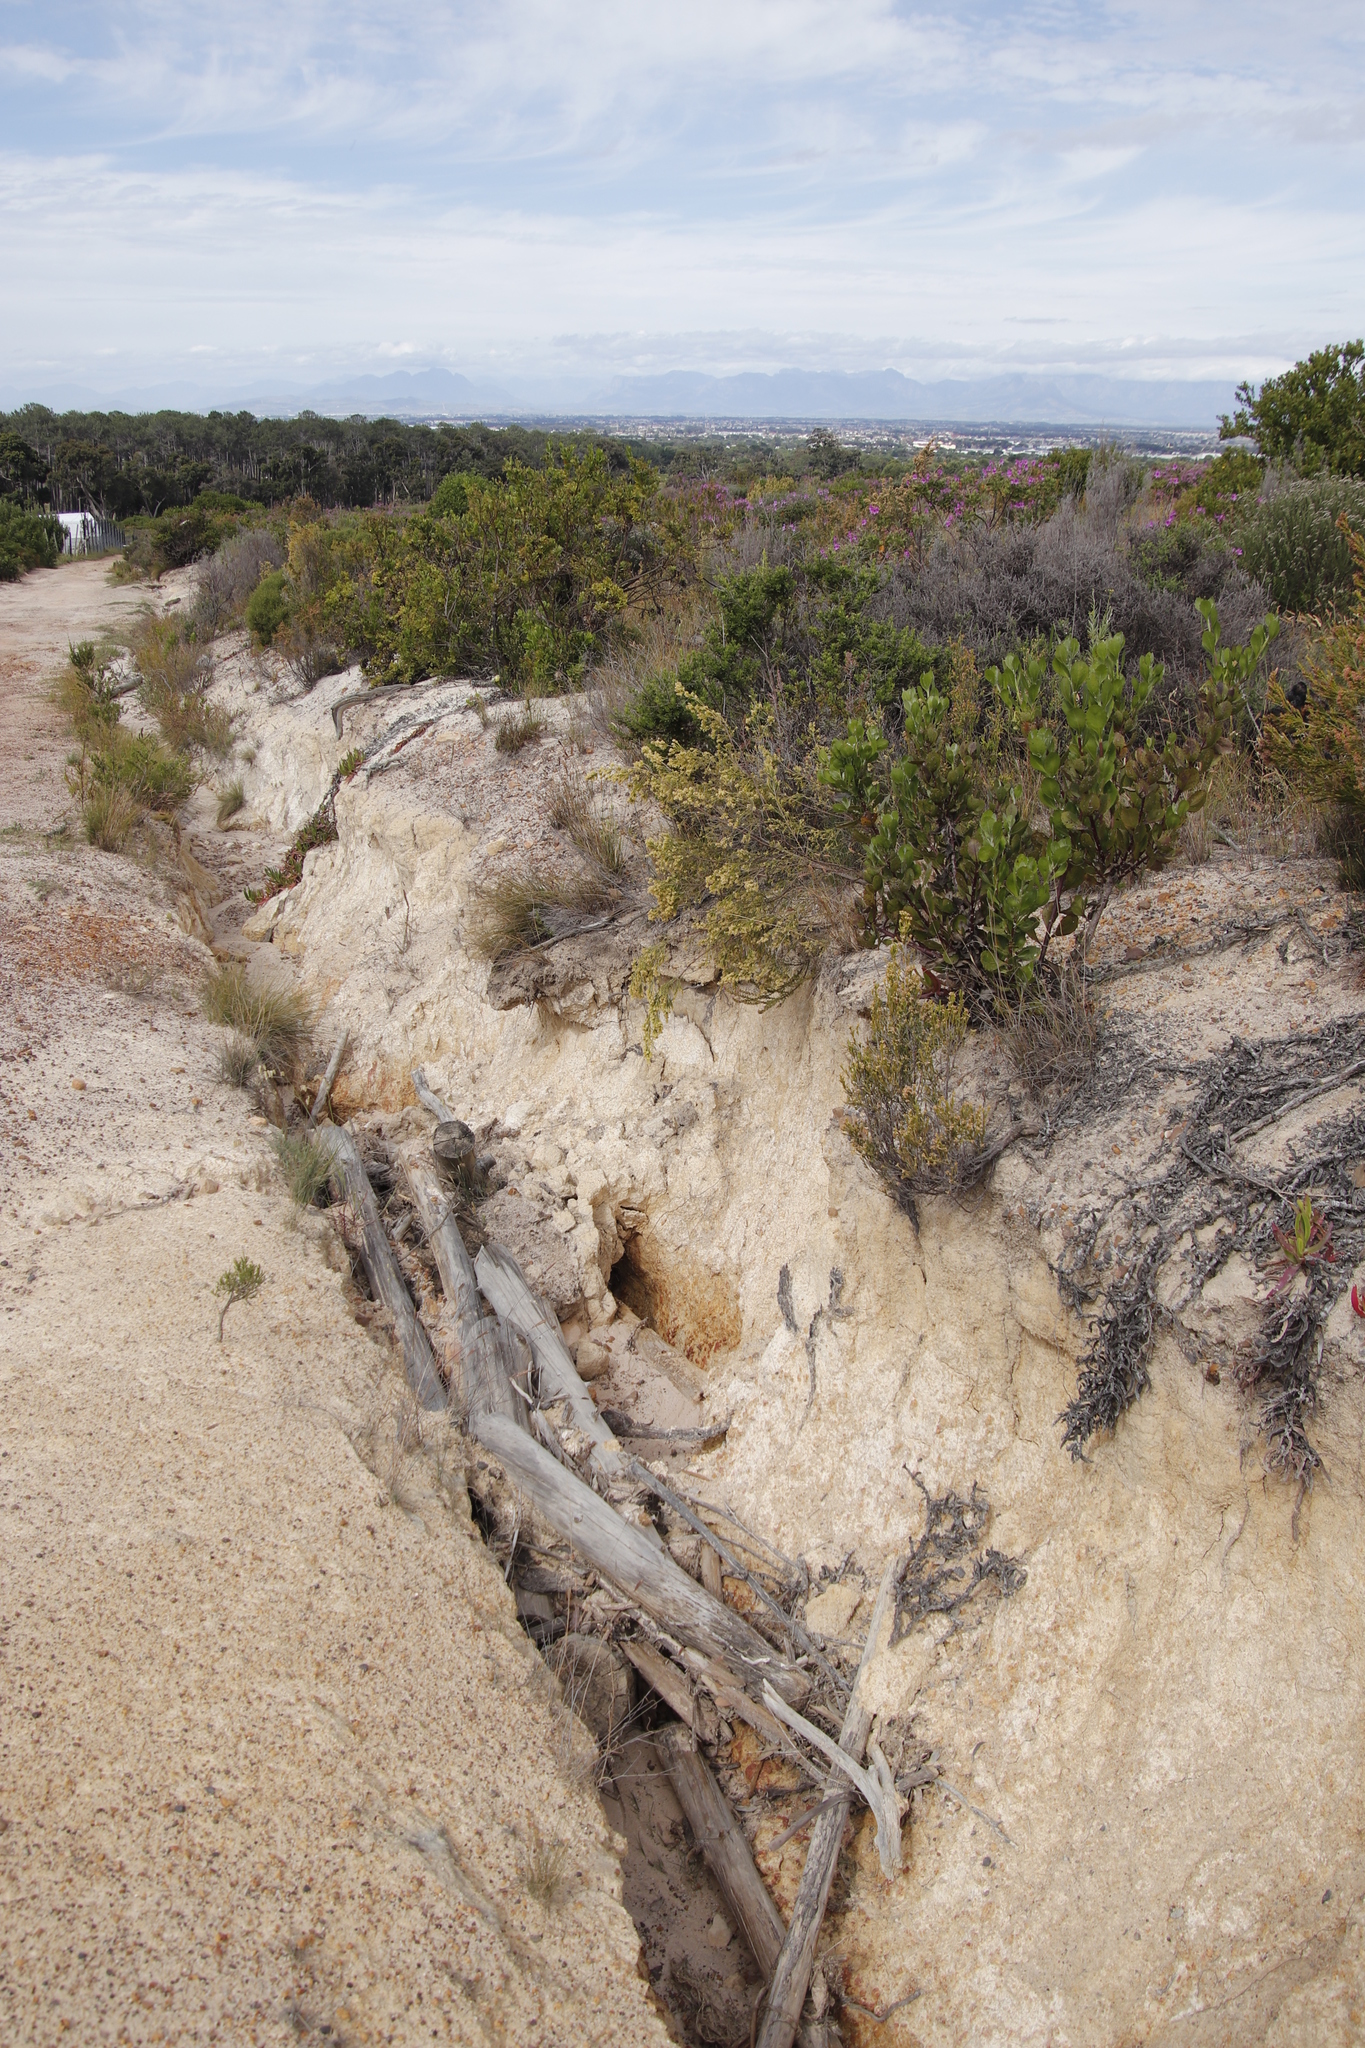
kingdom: Plantae
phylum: Tracheophyta
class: Magnoliopsida
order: Malvales
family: Thymelaeaceae
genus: Passerina
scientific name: Passerina corymbosa
